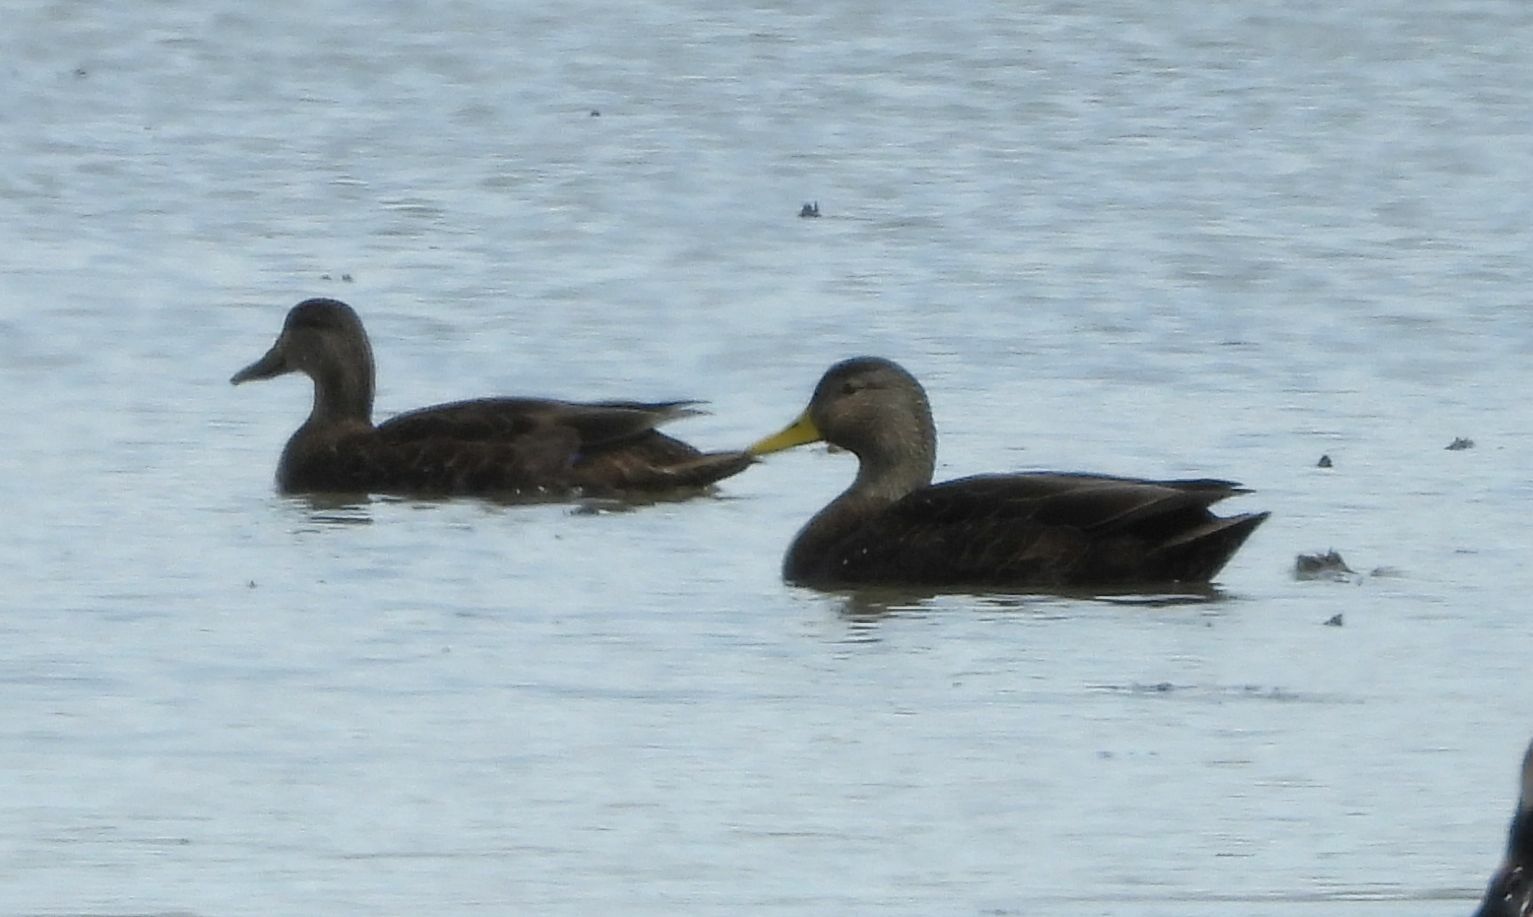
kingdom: Animalia
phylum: Chordata
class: Aves
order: Anseriformes
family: Anatidae
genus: Anas
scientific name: Anas rubripes
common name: American black duck
